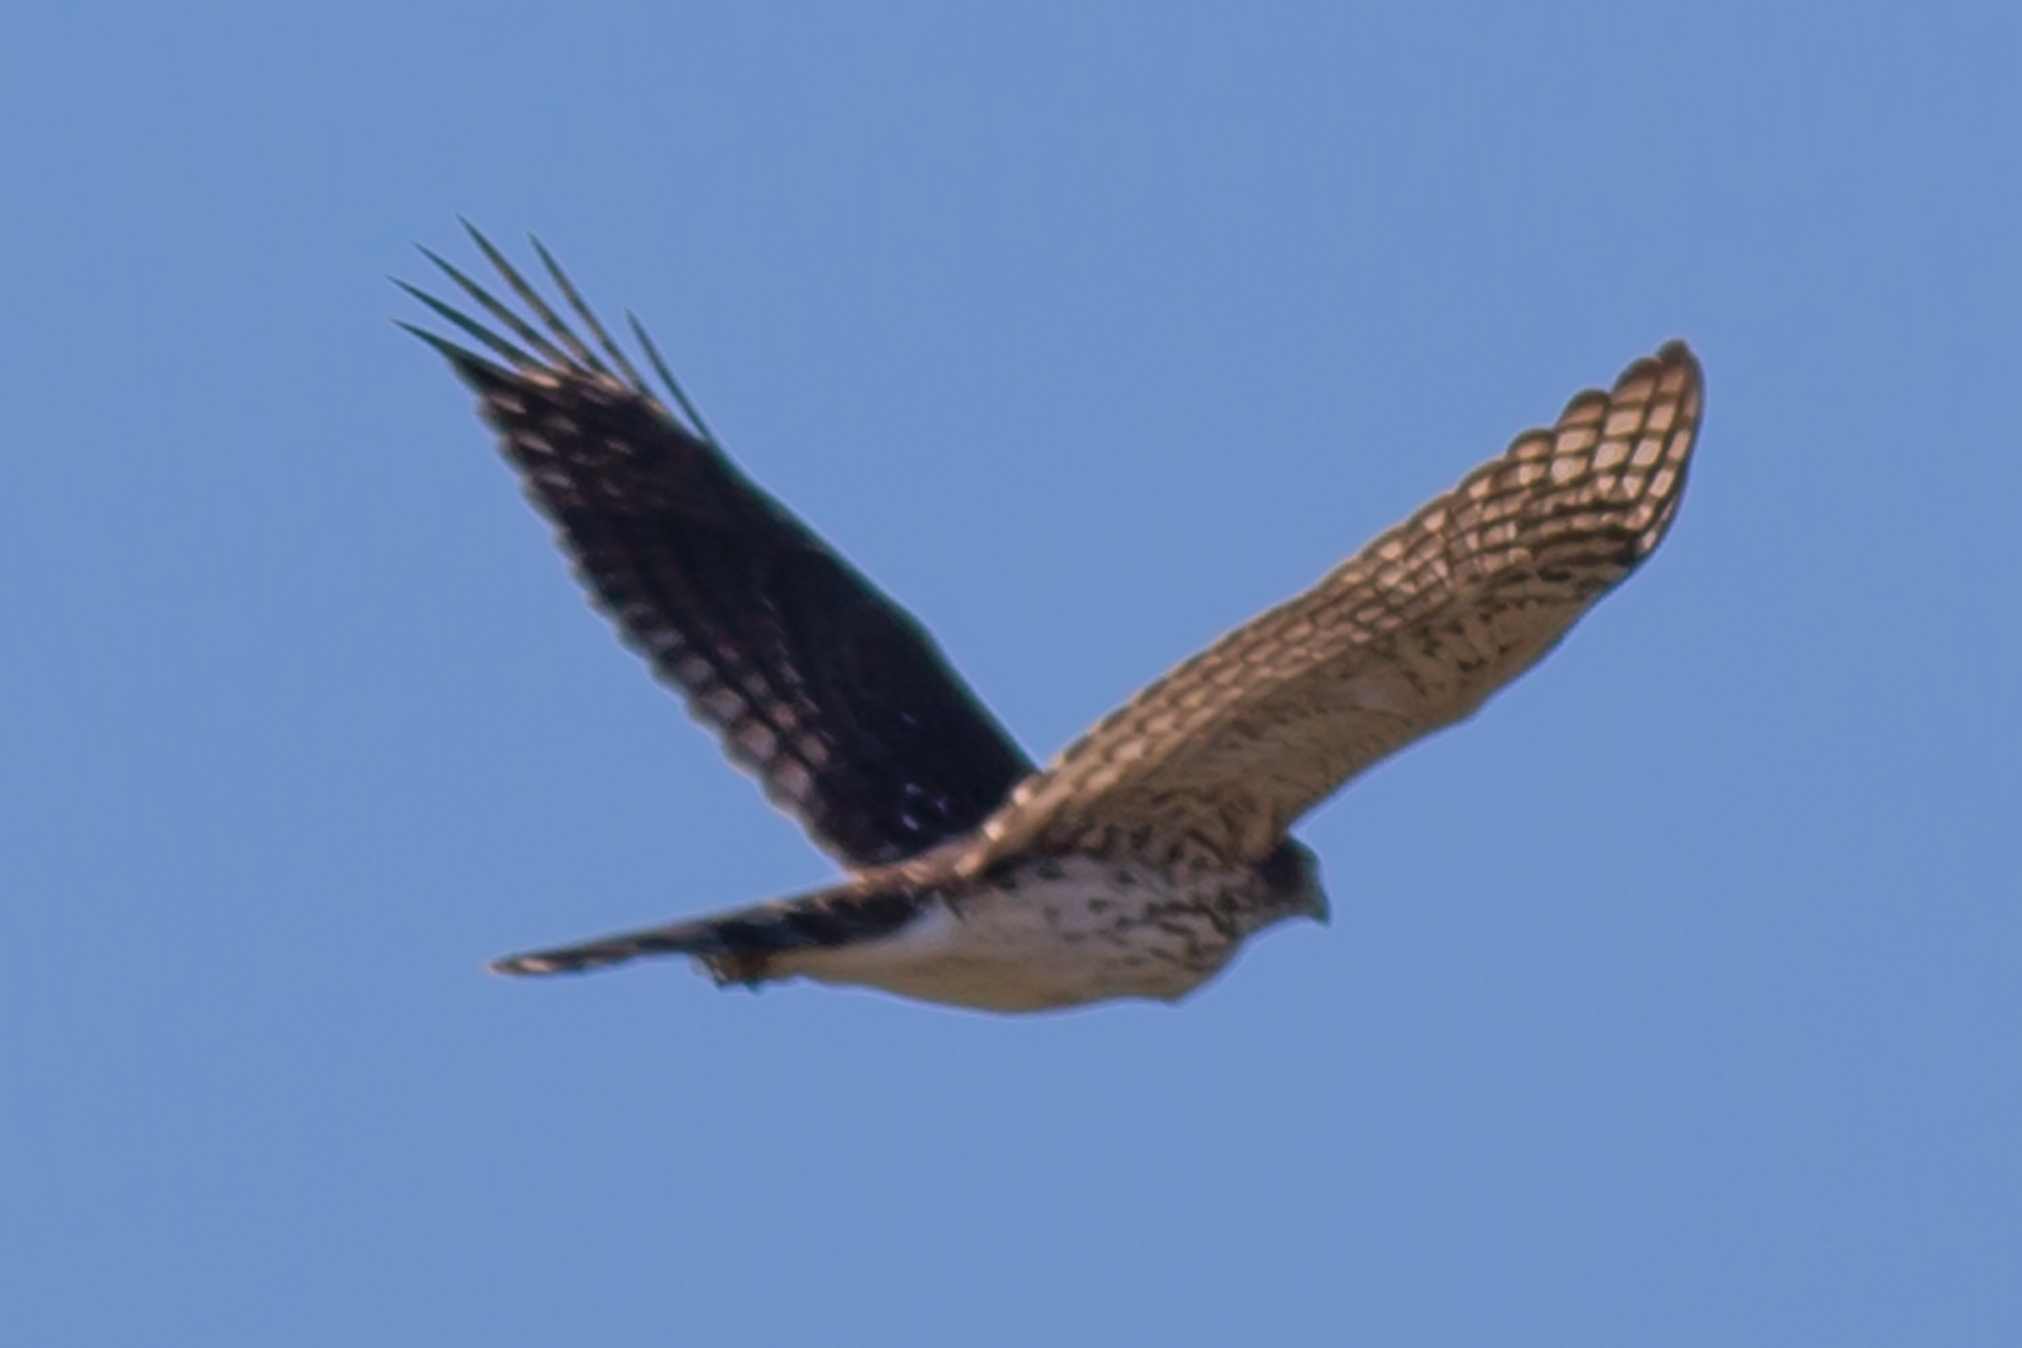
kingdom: Animalia
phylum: Chordata
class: Aves
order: Accipitriformes
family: Accipitridae
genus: Accipiter
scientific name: Accipiter cooperii
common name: Cooper's hawk
